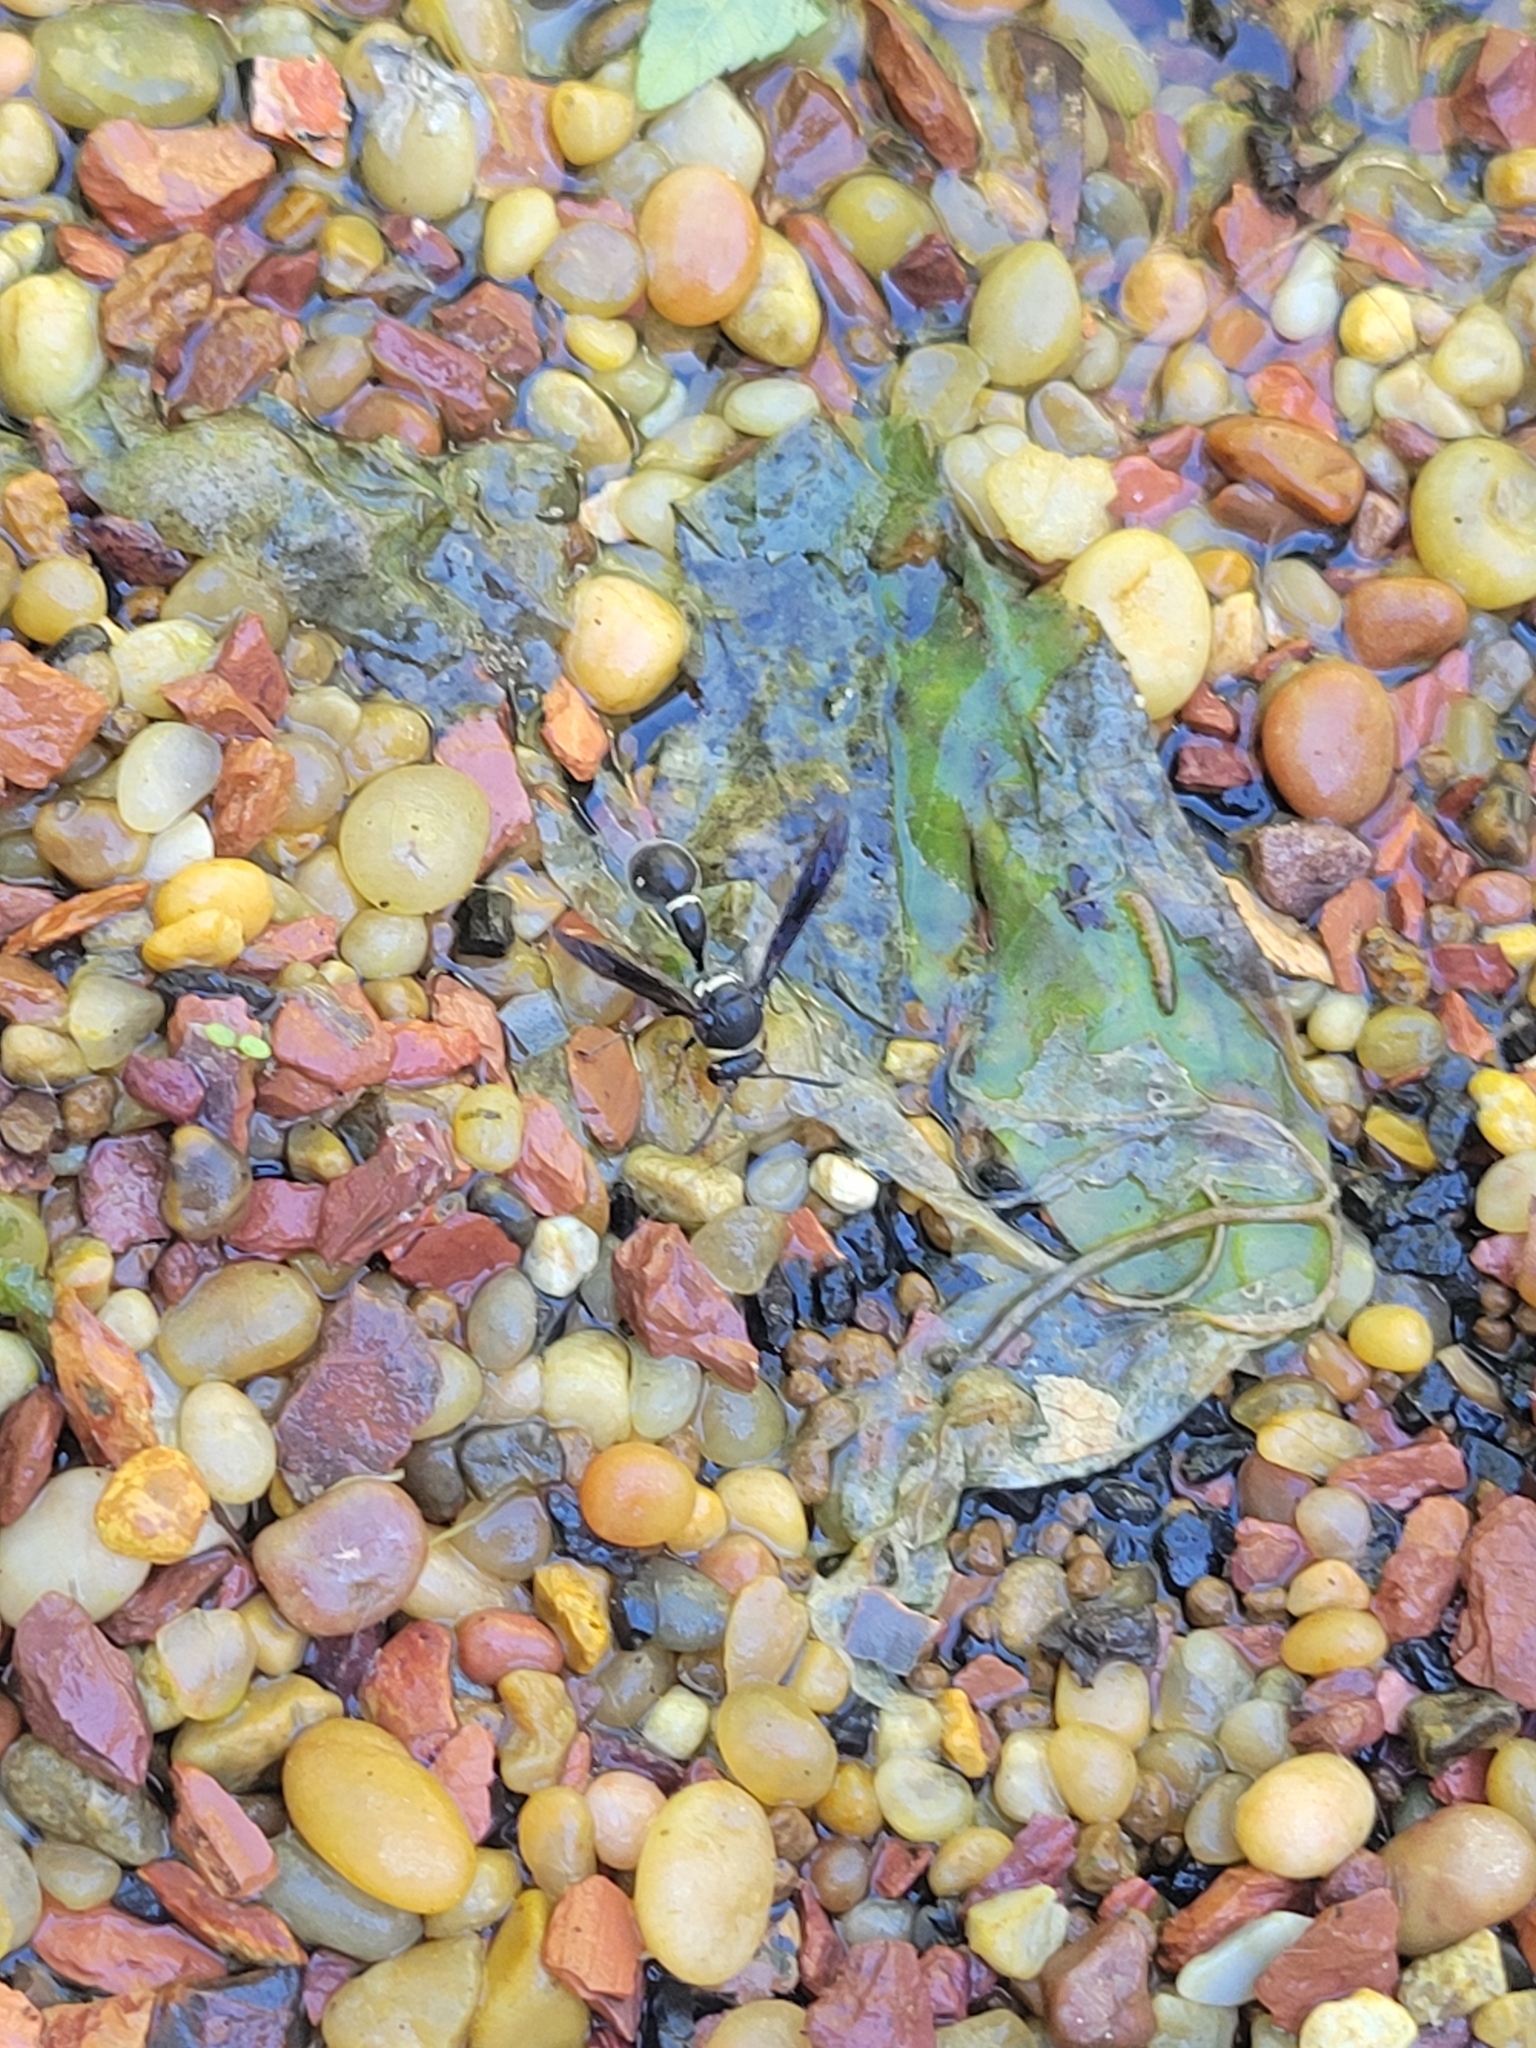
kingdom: Animalia
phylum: Arthropoda
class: Insecta
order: Hymenoptera
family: Vespidae
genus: Eumenes
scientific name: Eumenes fraternus
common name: Fraternal potter wasp
